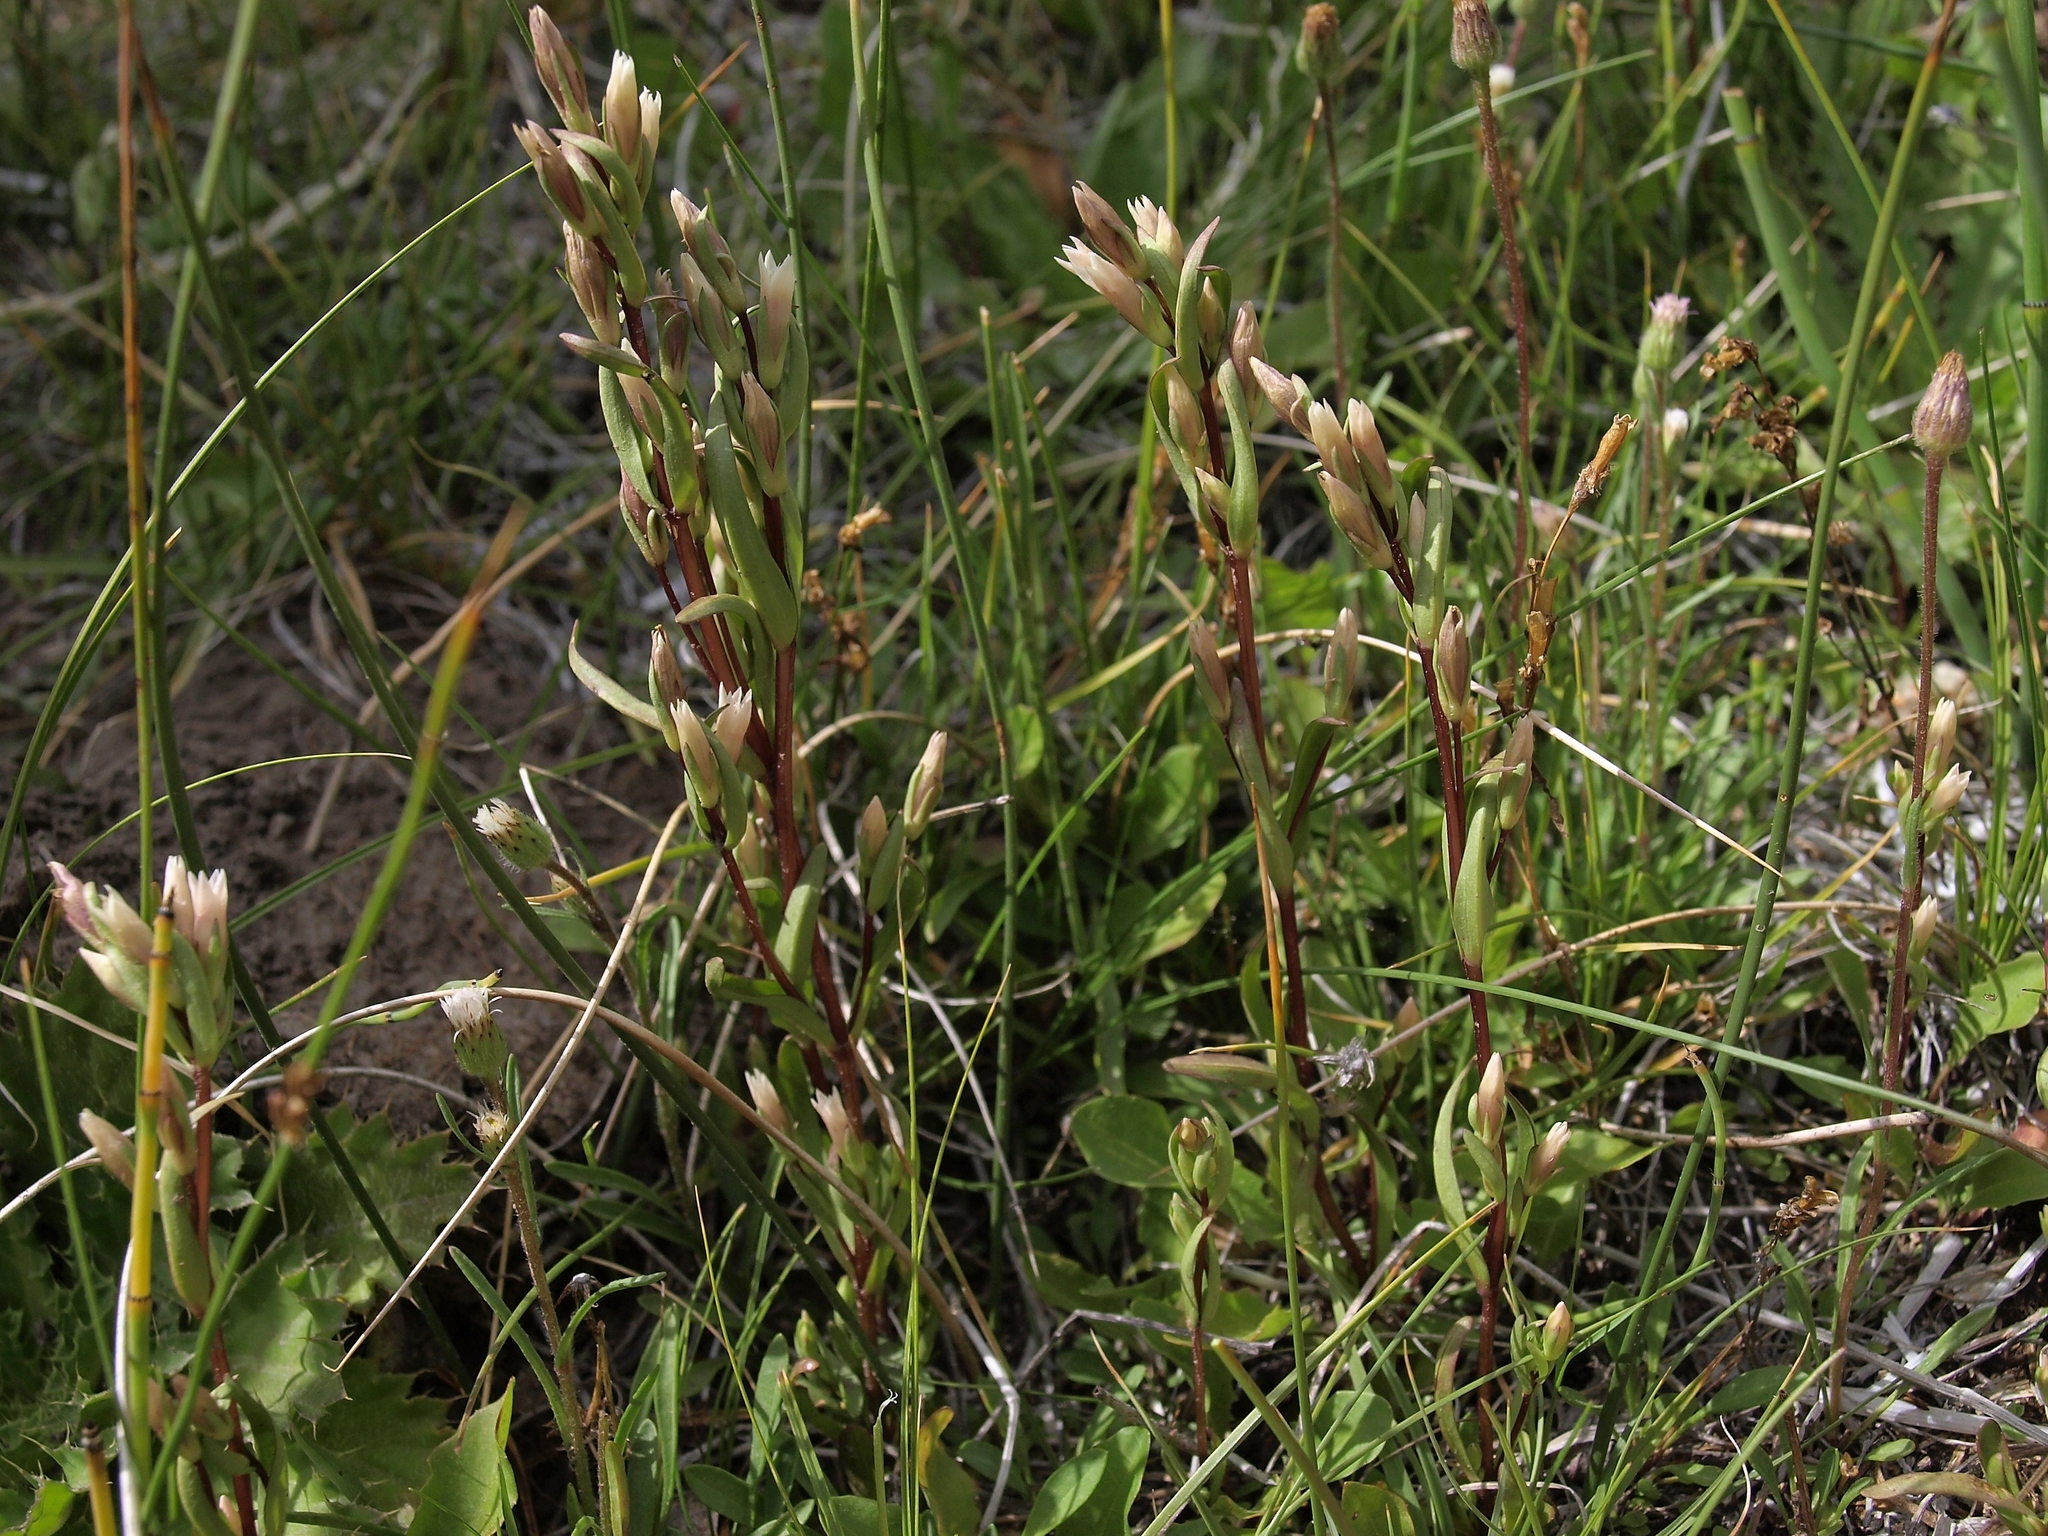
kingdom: Plantae
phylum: Tracheophyta
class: Magnoliopsida
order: Gentianales
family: Gentianaceae
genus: Gentianella
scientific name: Gentianella amarella
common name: Autumn gentian
